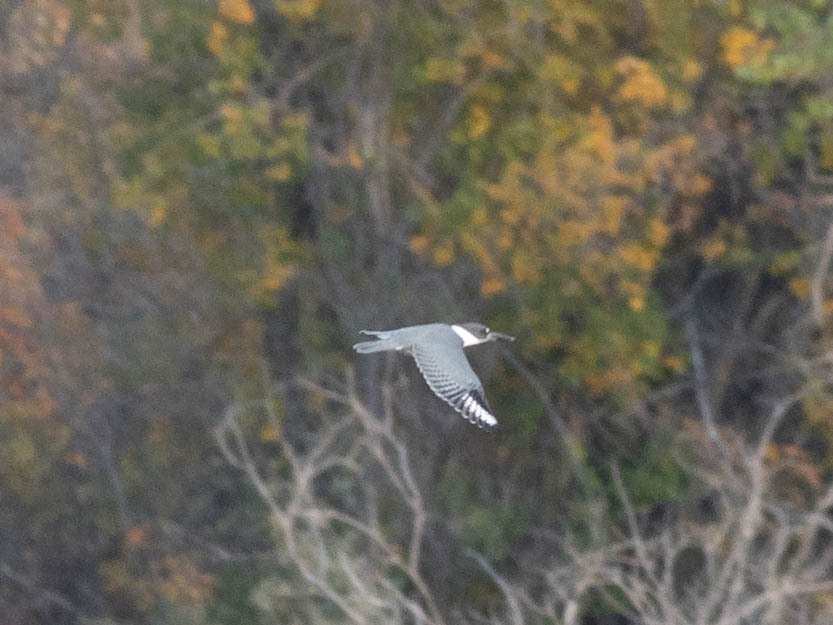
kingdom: Animalia
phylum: Chordata
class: Aves
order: Coraciiformes
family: Alcedinidae
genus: Megaceryle
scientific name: Megaceryle alcyon
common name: Belted kingfisher
